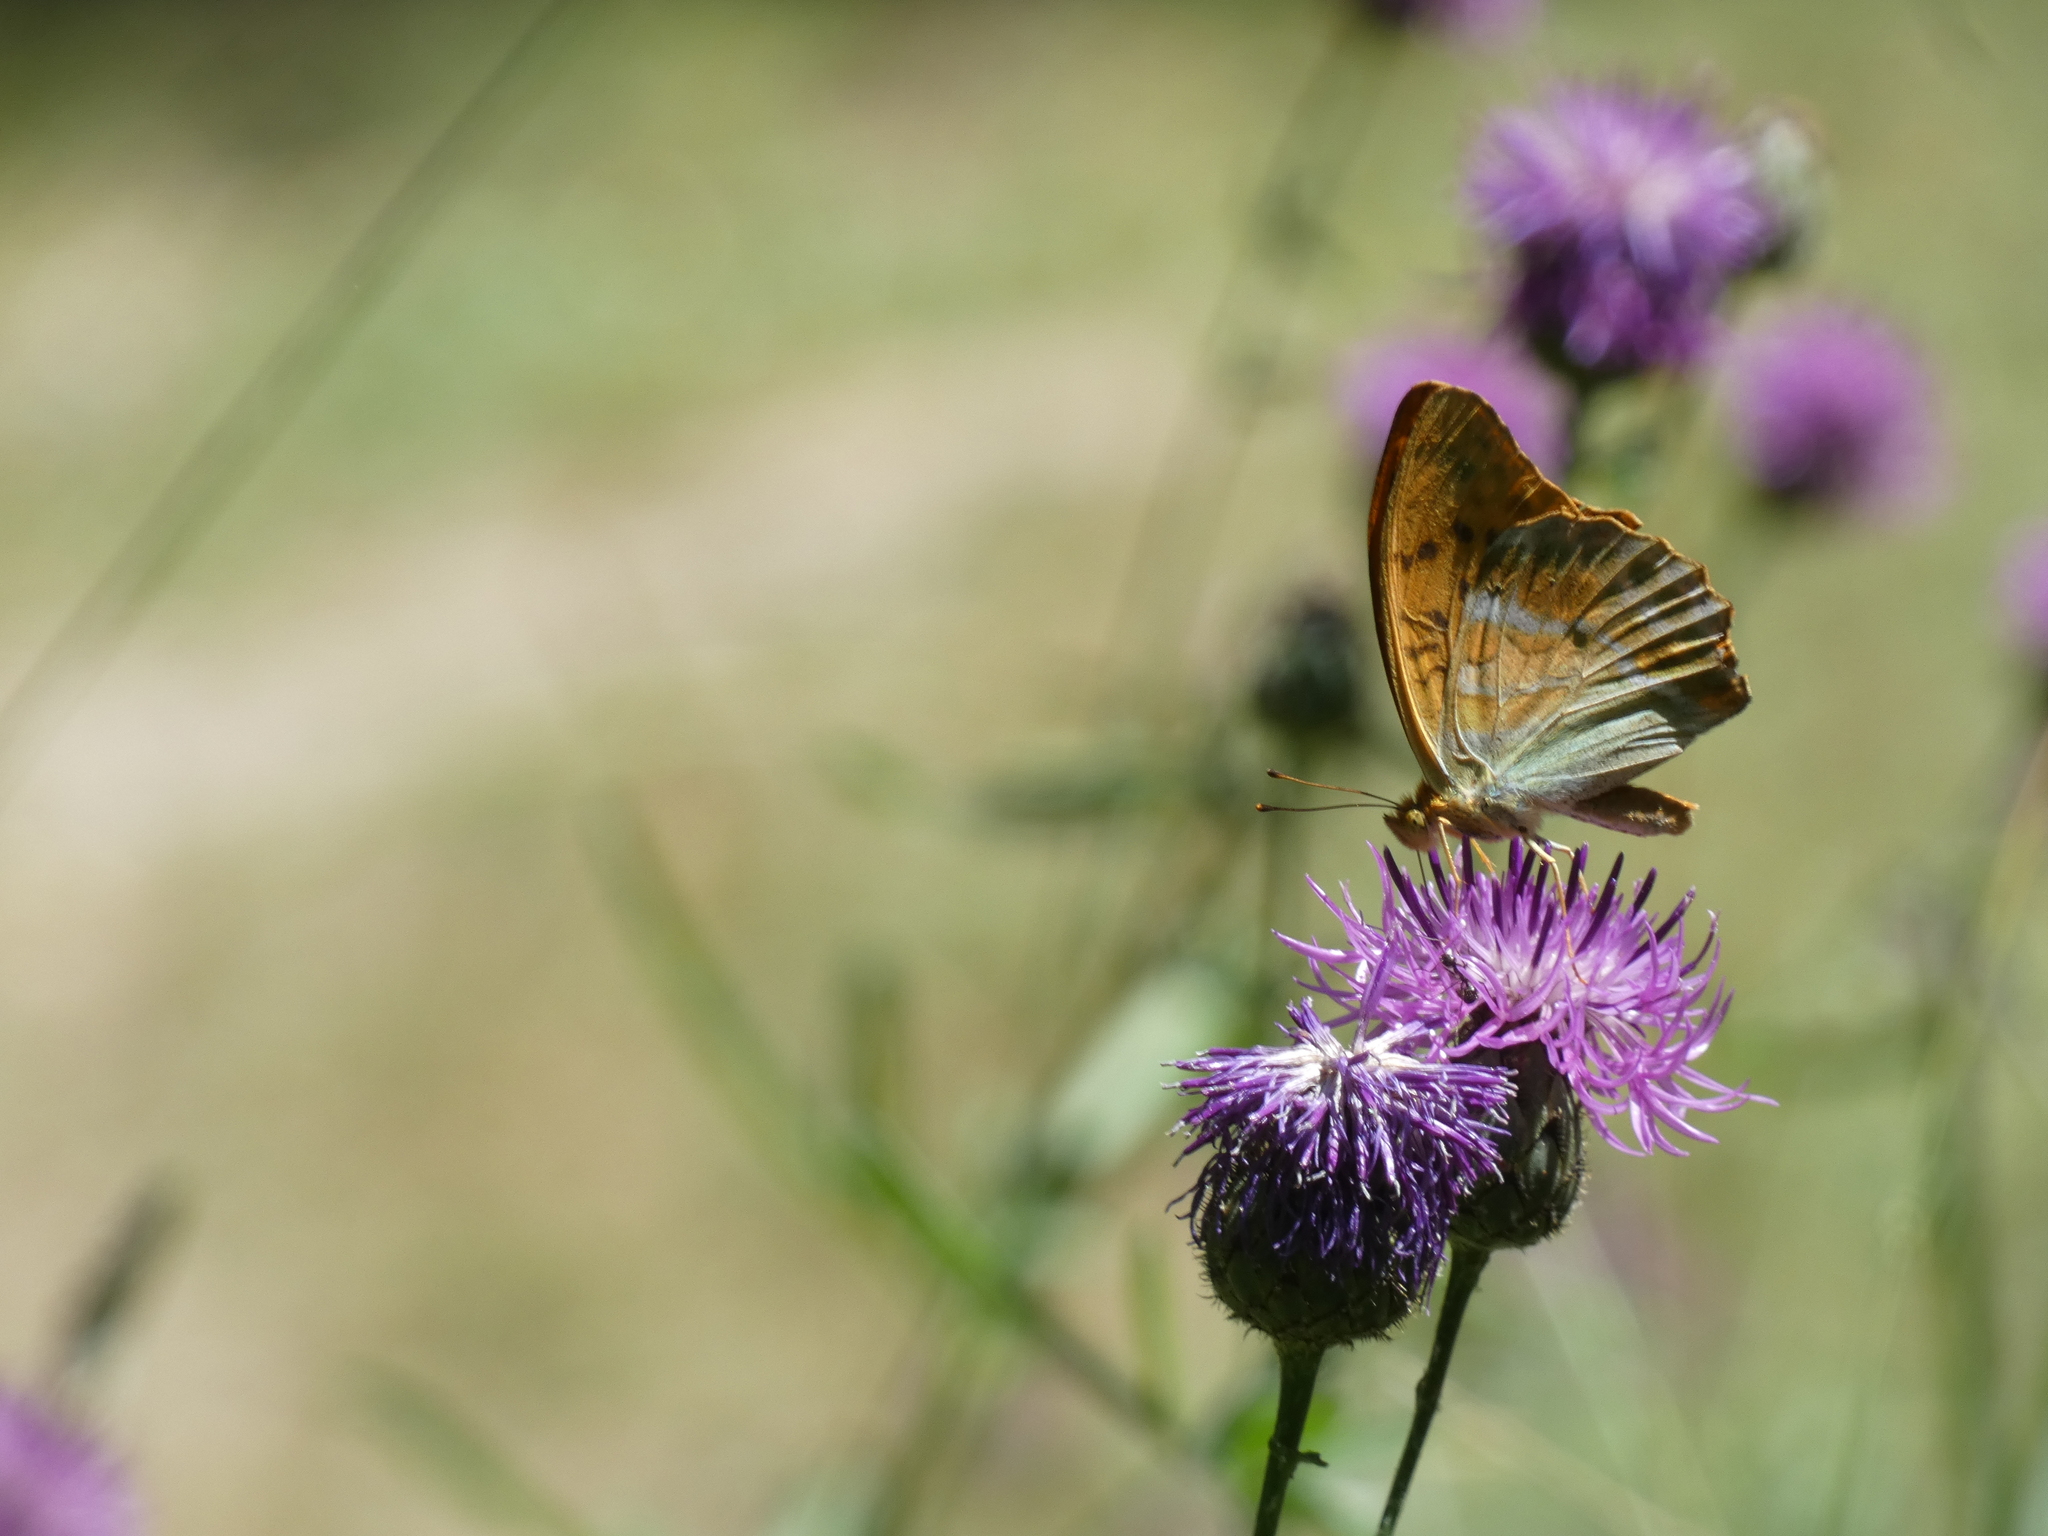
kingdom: Animalia
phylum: Arthropoda
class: Insecta
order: Lepidoptera
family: Nymphalidae
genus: Argynnis
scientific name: Argynnis paphia
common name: Silver-washed fritillary
